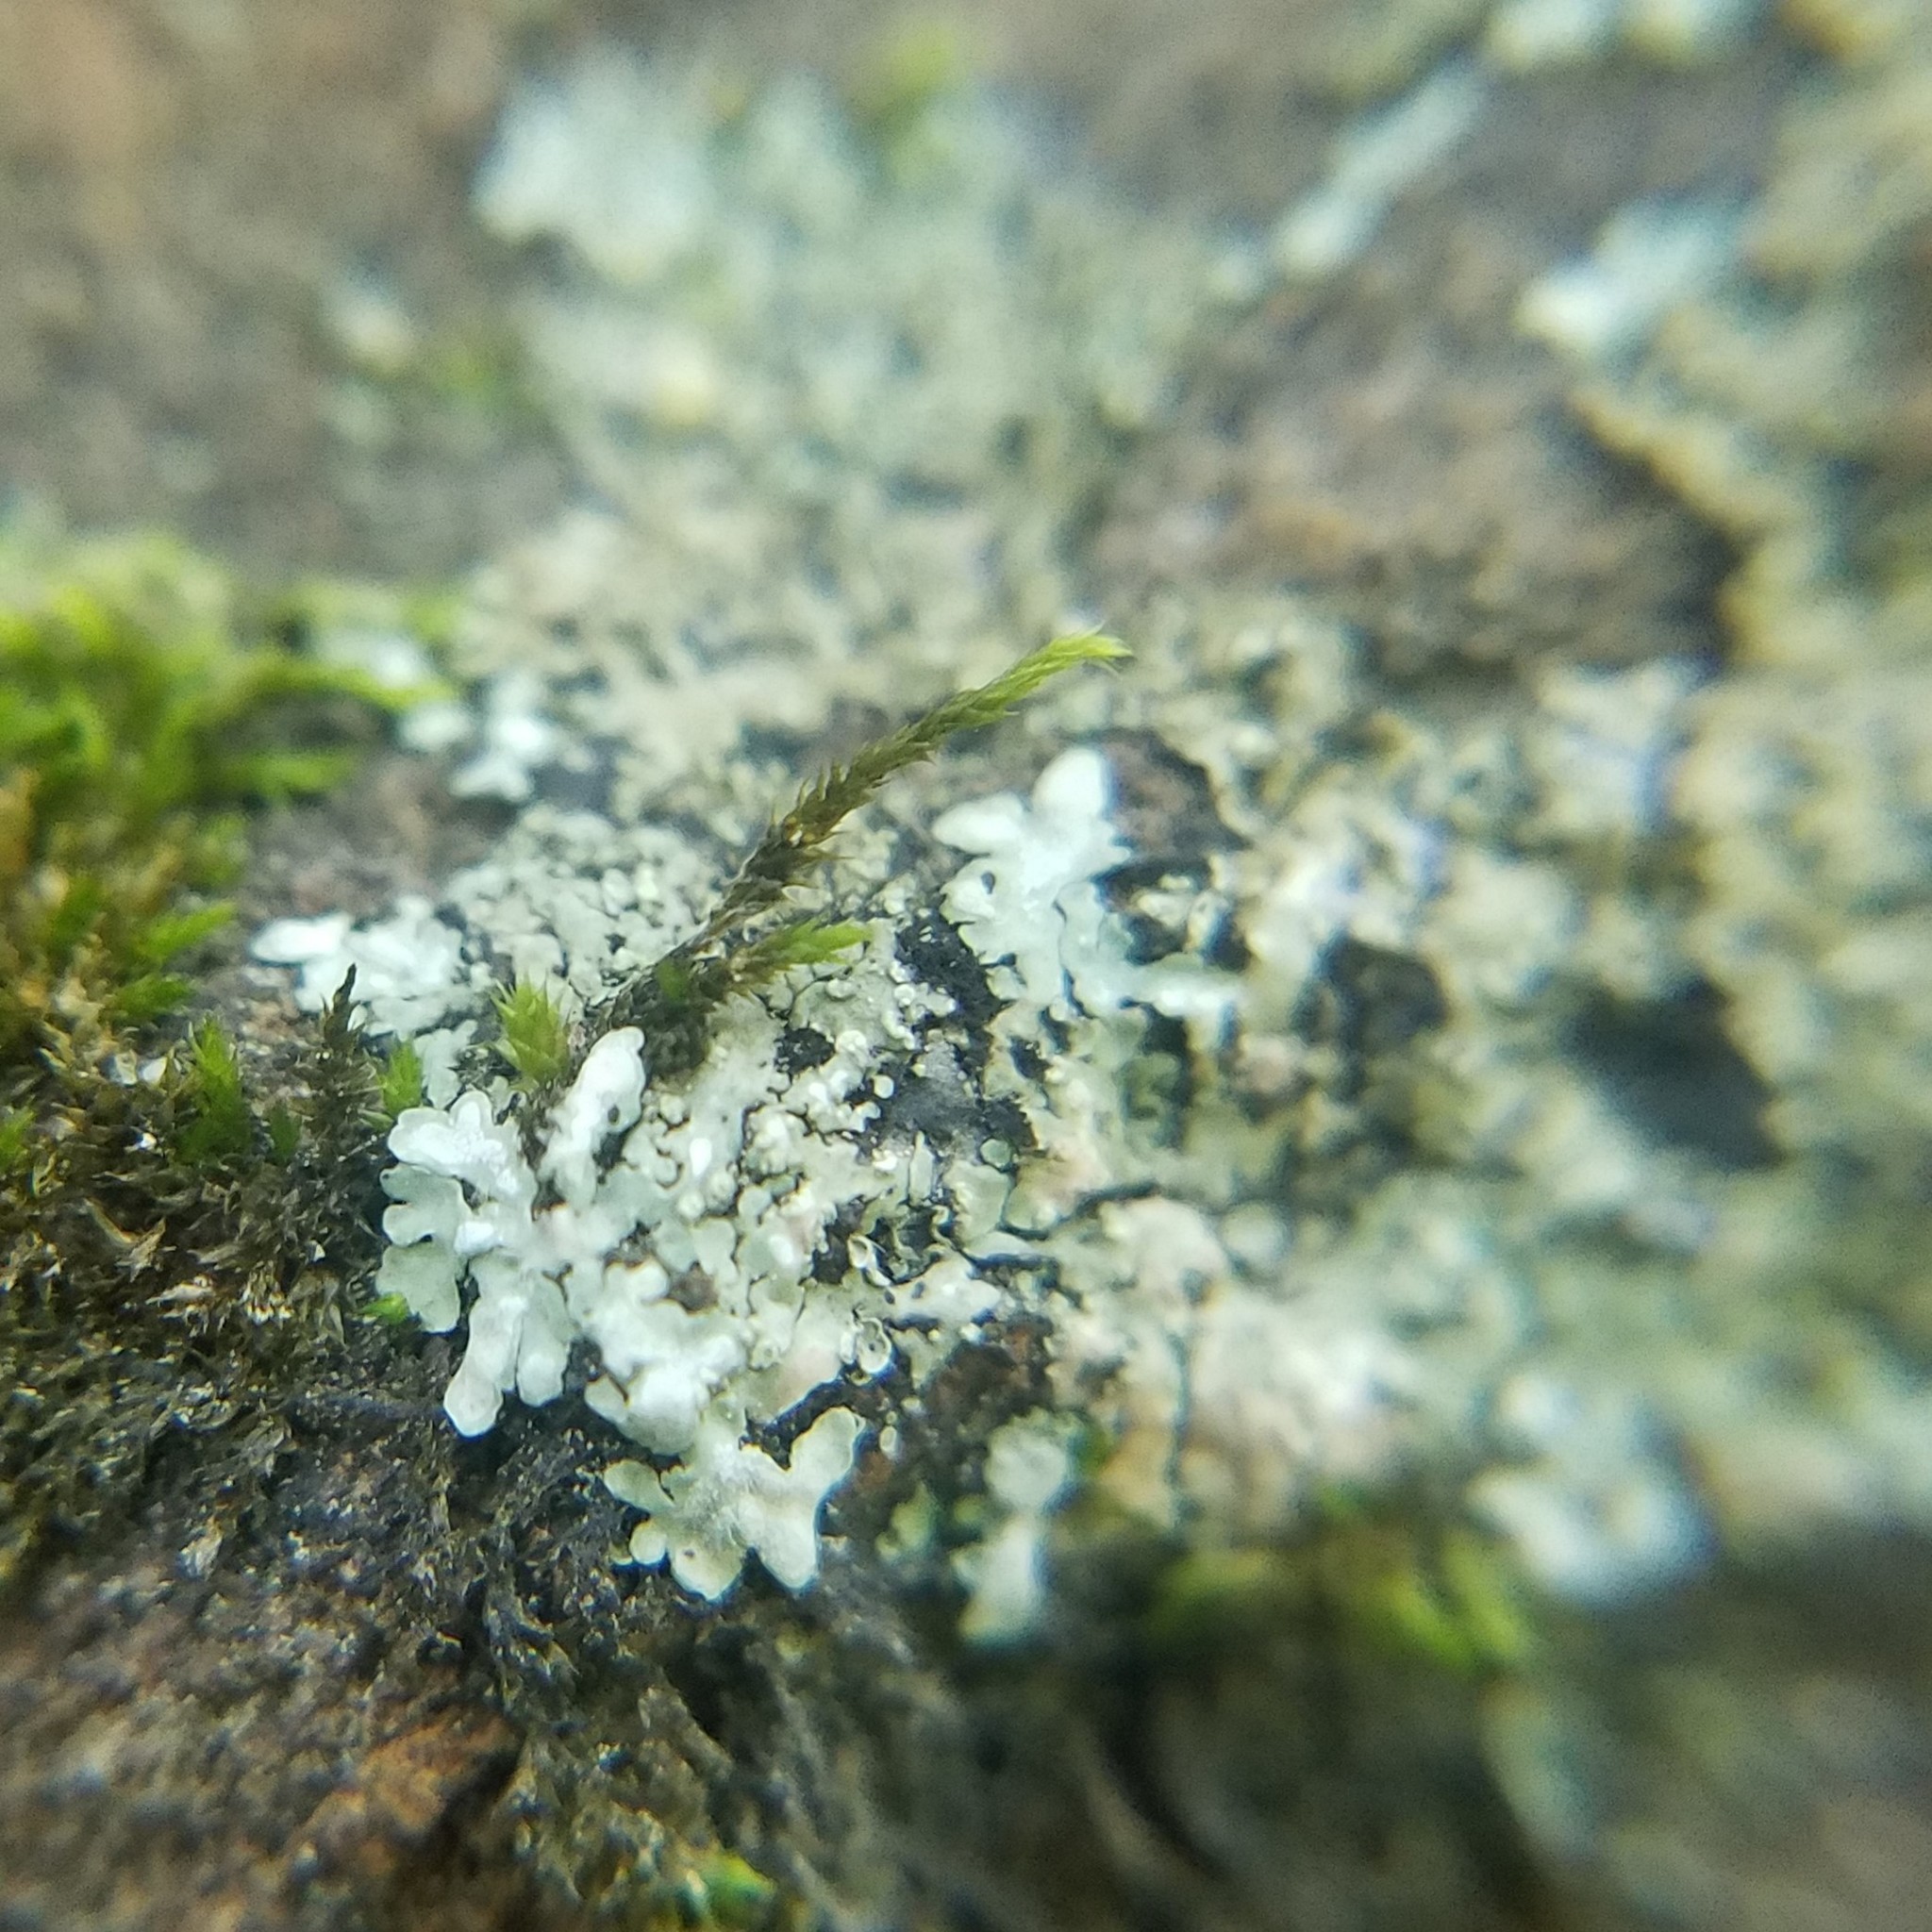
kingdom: Fungi
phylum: Ascomycota
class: Lecanoromycetes
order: Caliciales
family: Caliciaceae
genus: Pyxine
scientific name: Pyxine subcinerea
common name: Mustard lichen
